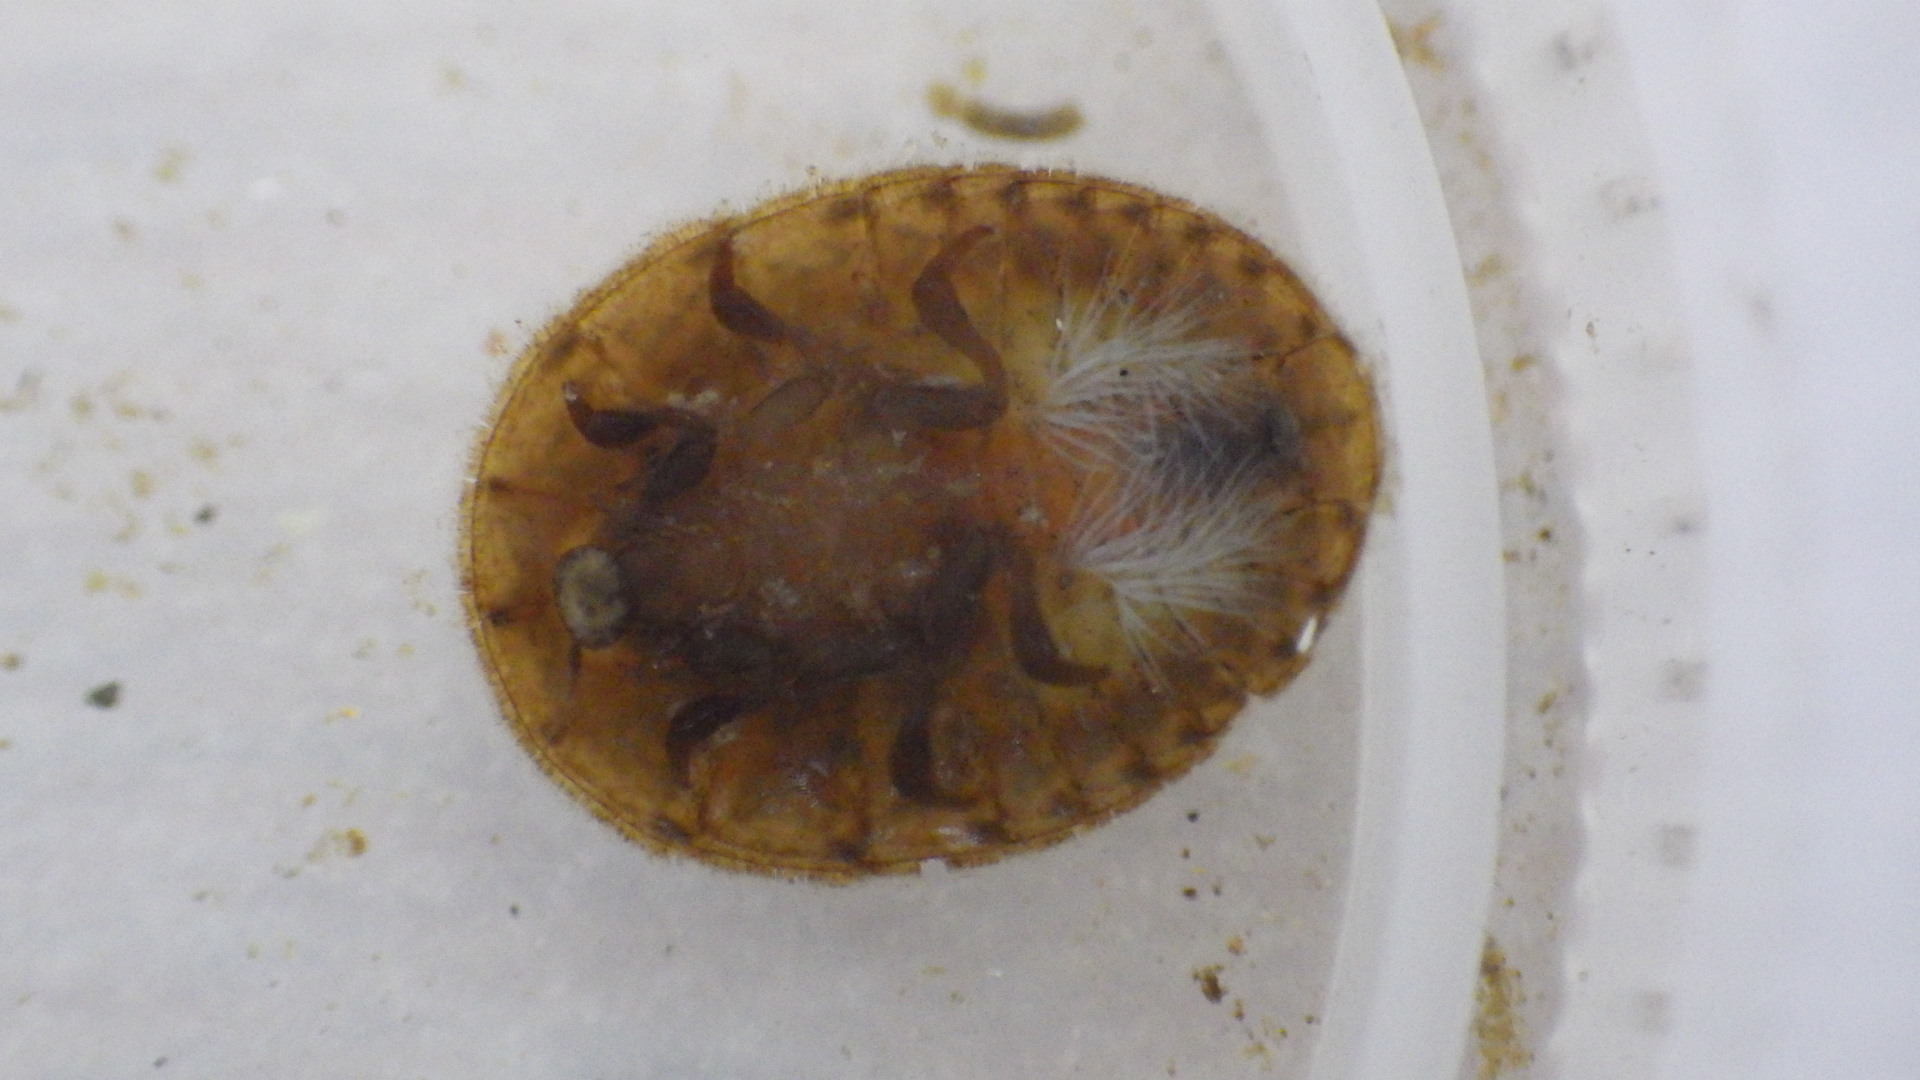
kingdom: Animalia
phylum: Arthropoda
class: Insecta
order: Coleoptera
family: Psephenidae
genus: Psephenus
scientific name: Psephenus herricki
